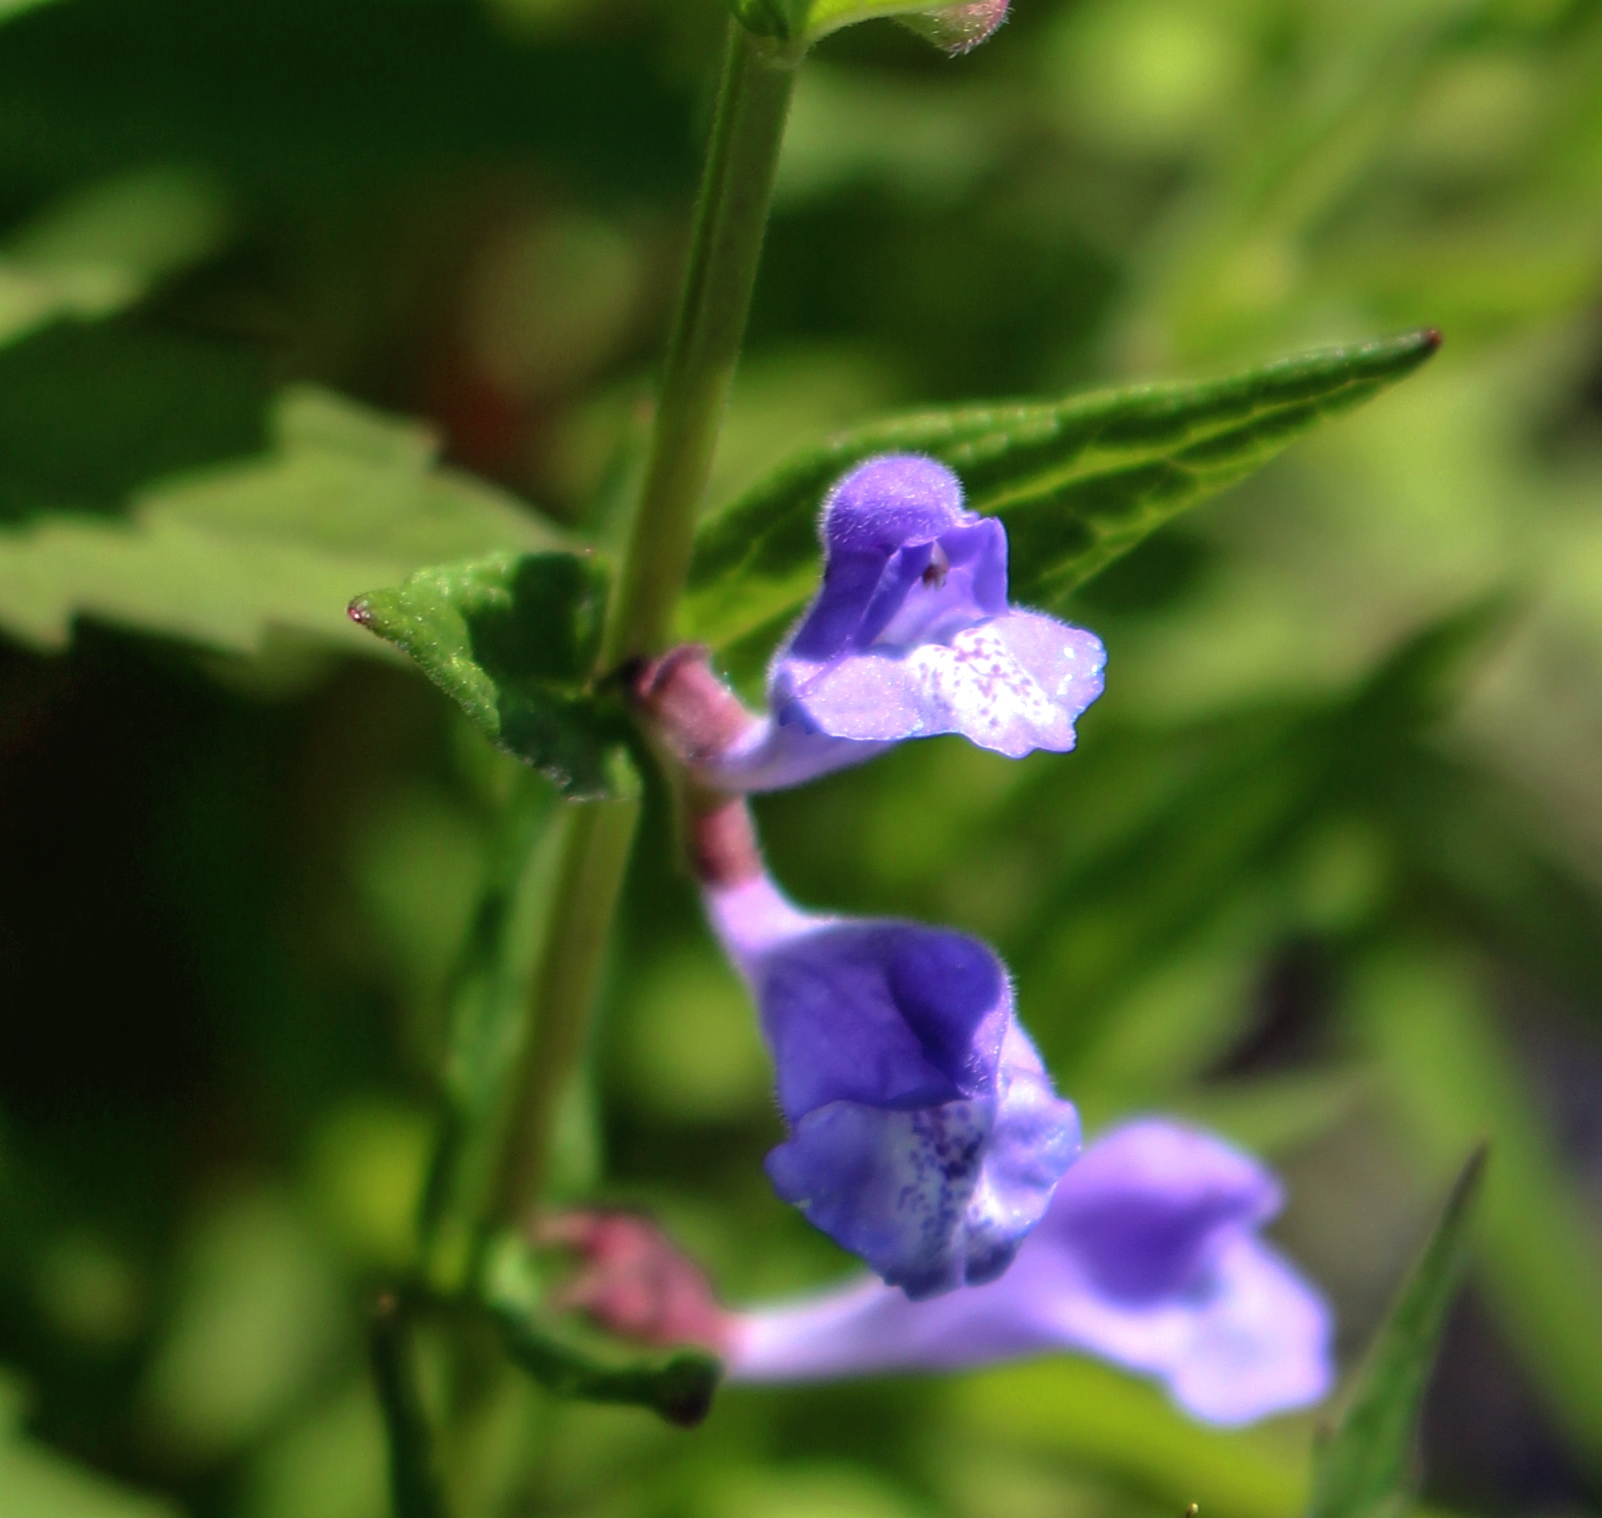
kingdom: Plantae
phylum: Tracheophyta
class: Magnoliopsida
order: Lamiales
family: Lamiaceae
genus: Scutellaria
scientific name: Scutellaria galericulata
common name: Skullcap
